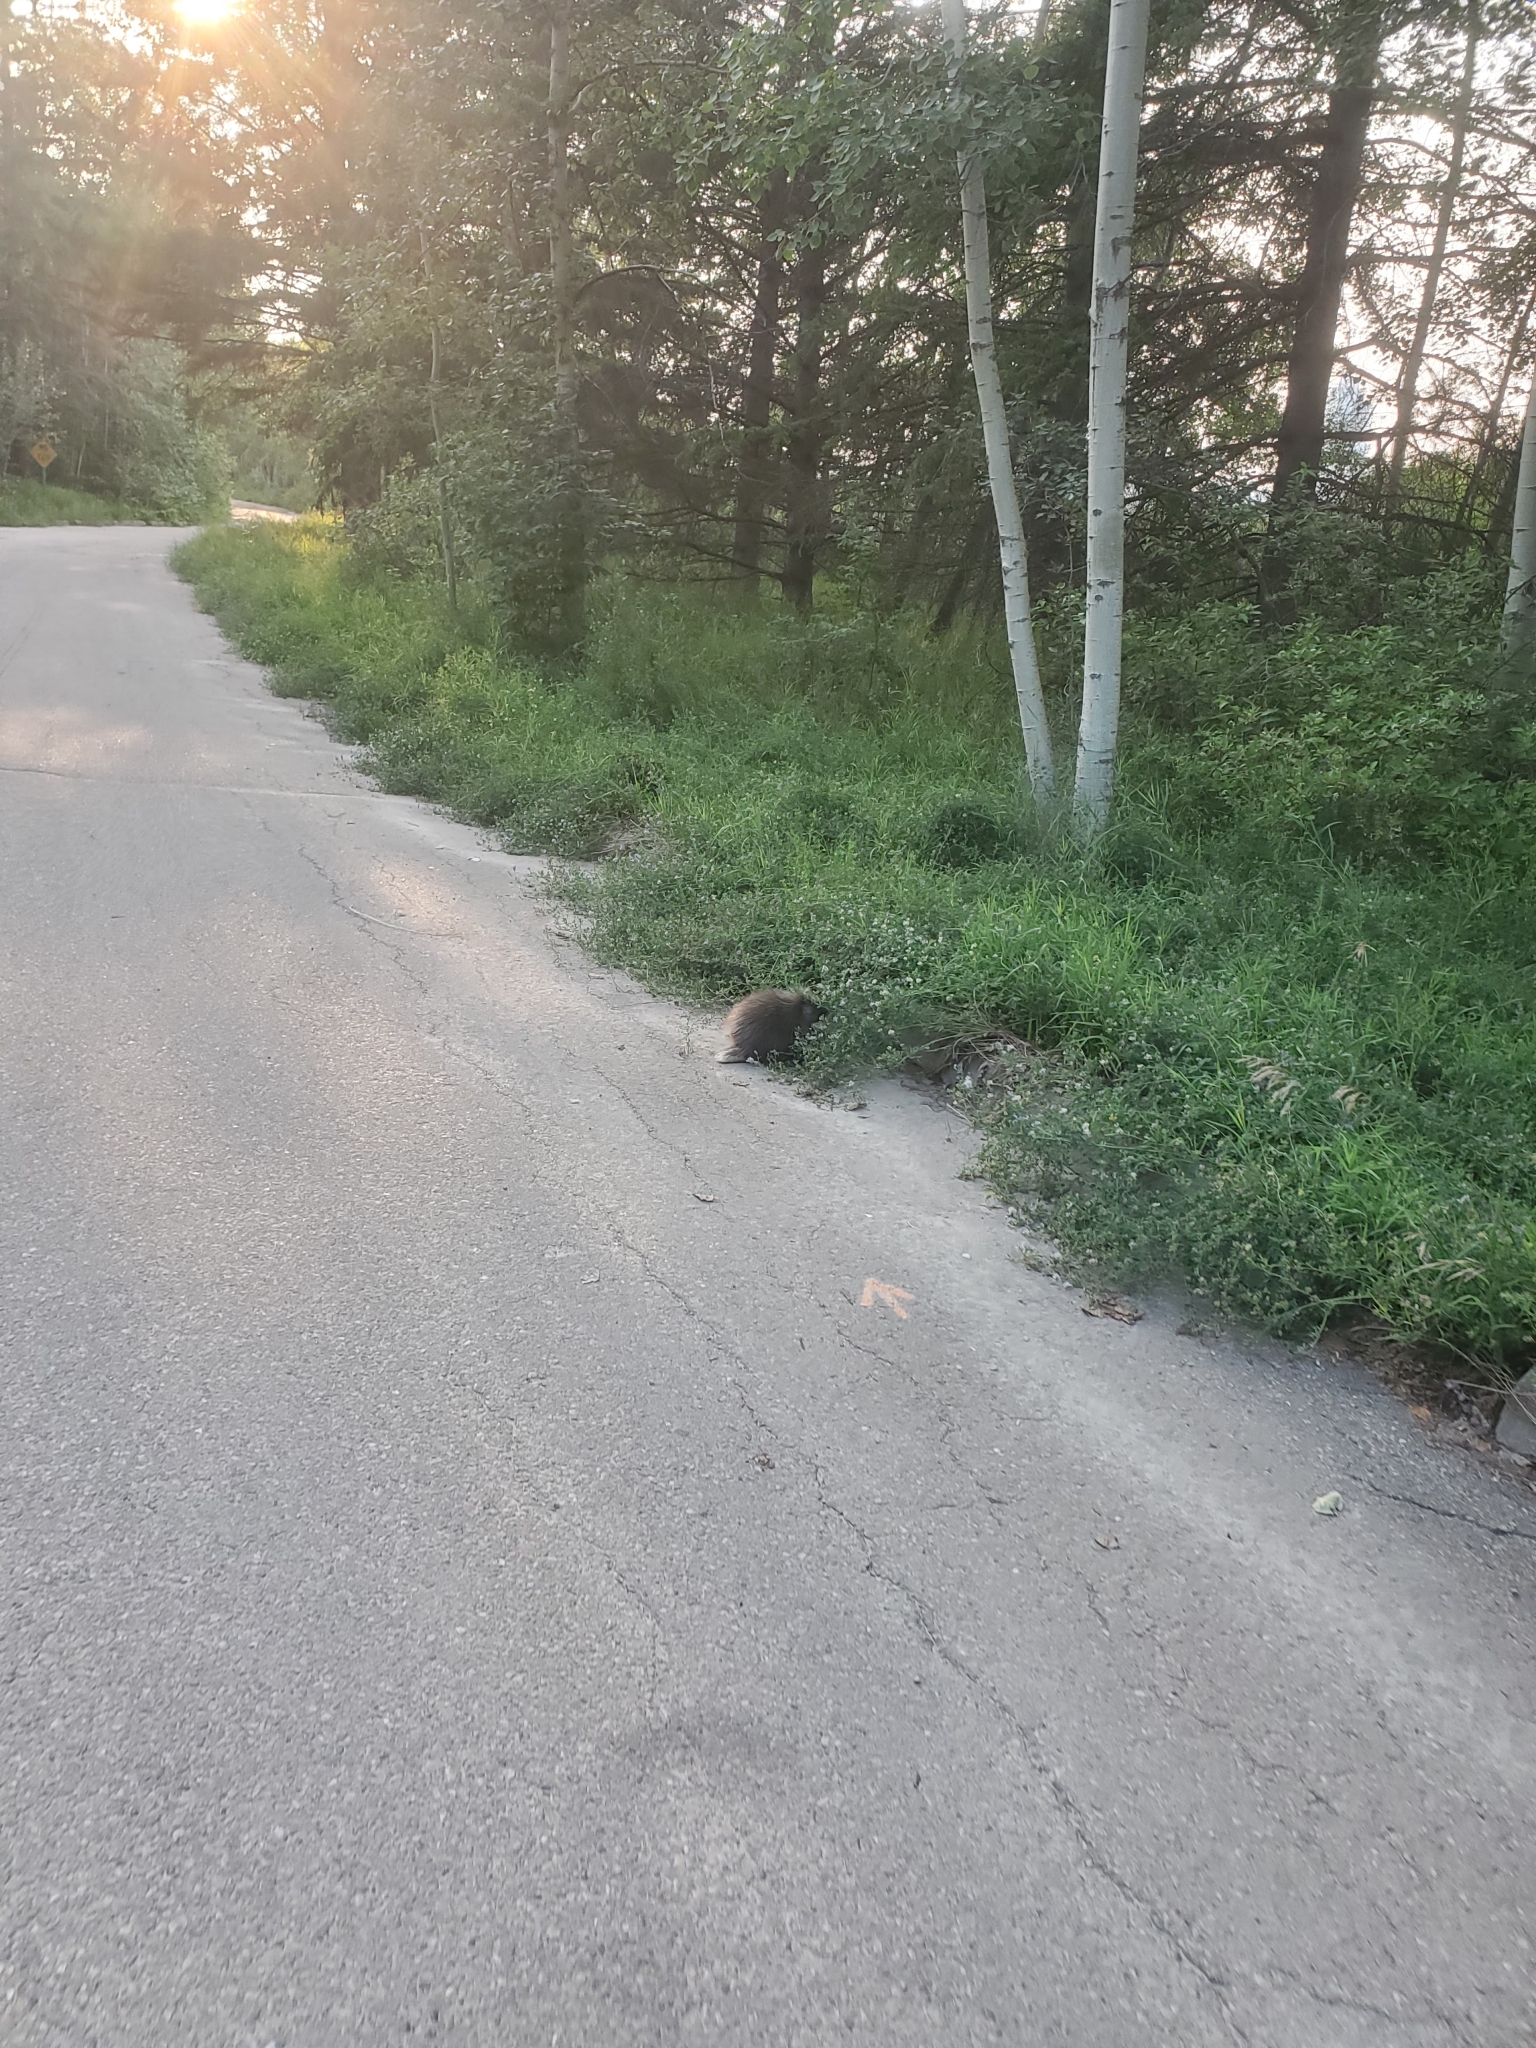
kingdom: Animalia
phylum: Chordata
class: Mammalia
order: Rodentia
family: Erethizontidae
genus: Erethizon
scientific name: Erethizon dorsatus
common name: North american porcupine
